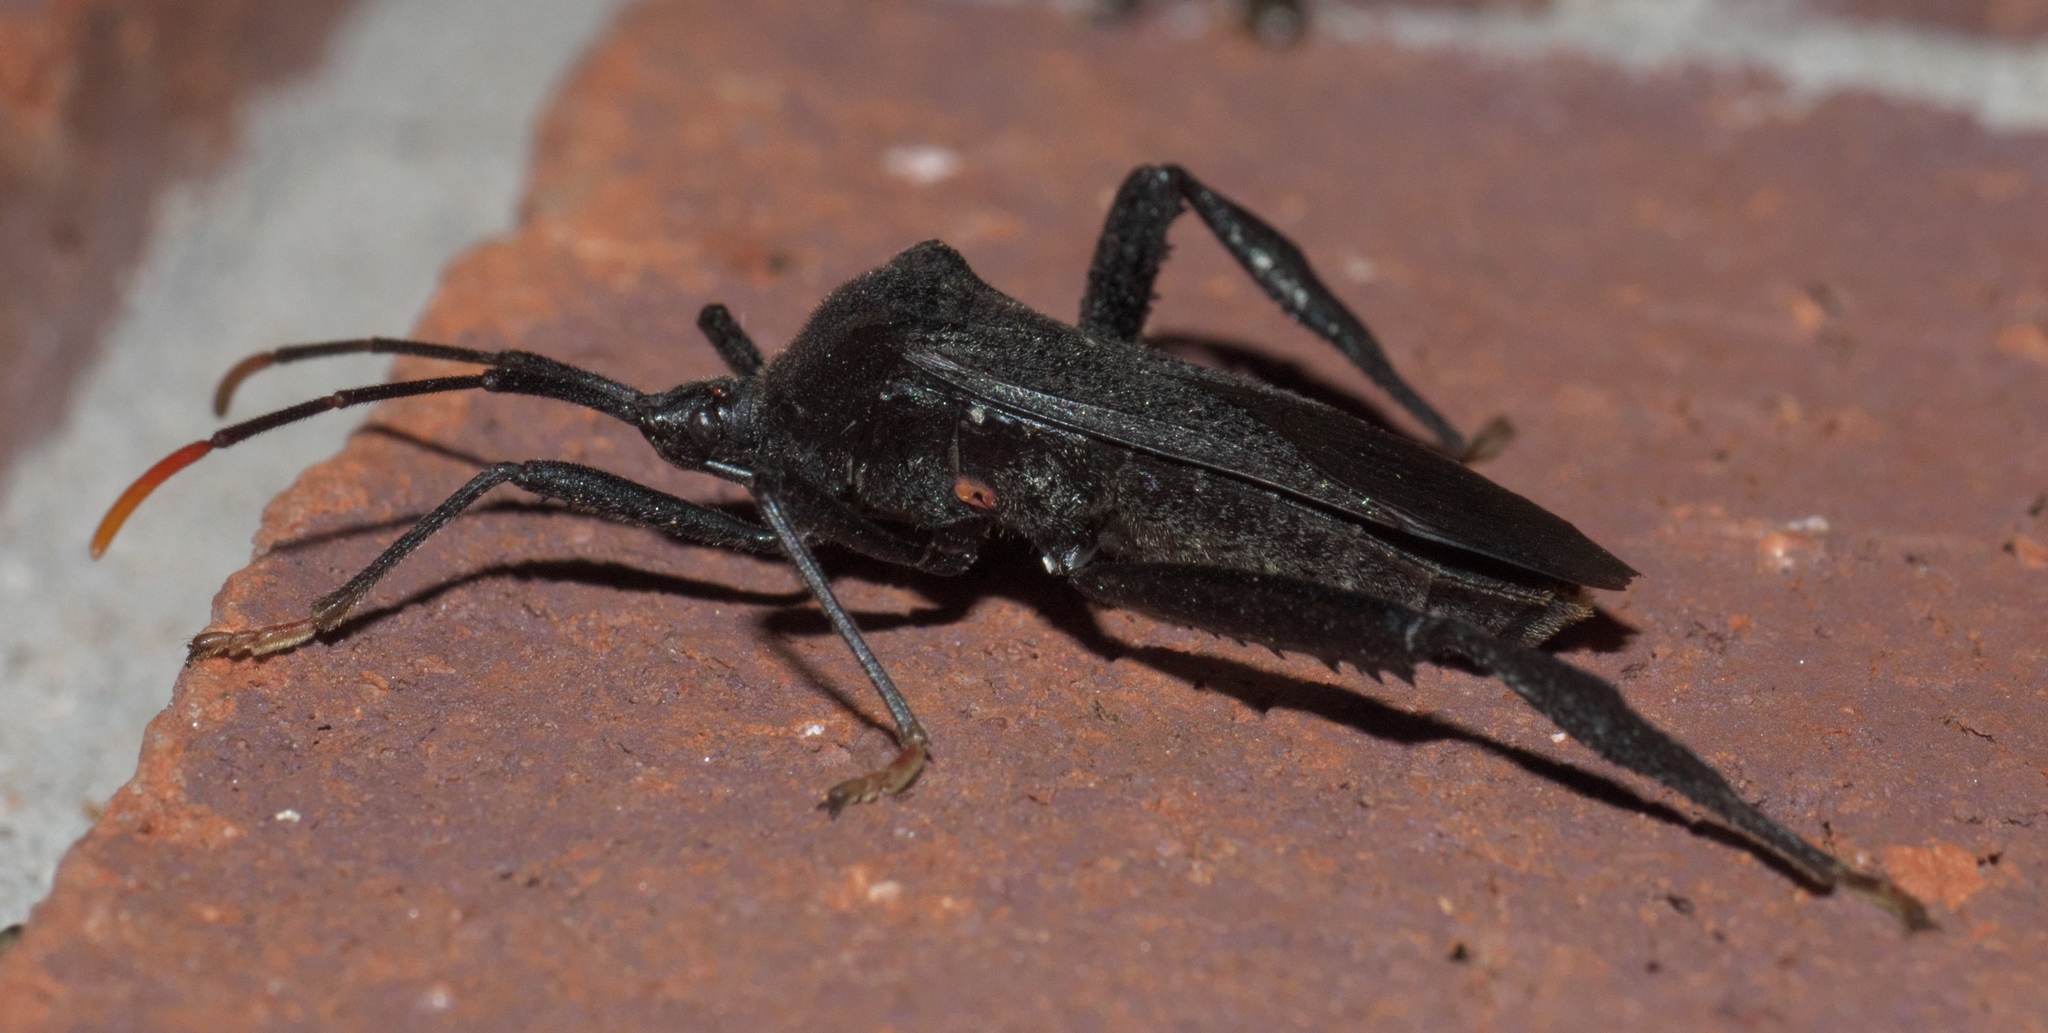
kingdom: Animalia
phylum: Arthropoda
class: Insecta
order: Hemiptera
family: Coreidae
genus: Acanthocephala
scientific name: Acanthocephala terminalis
